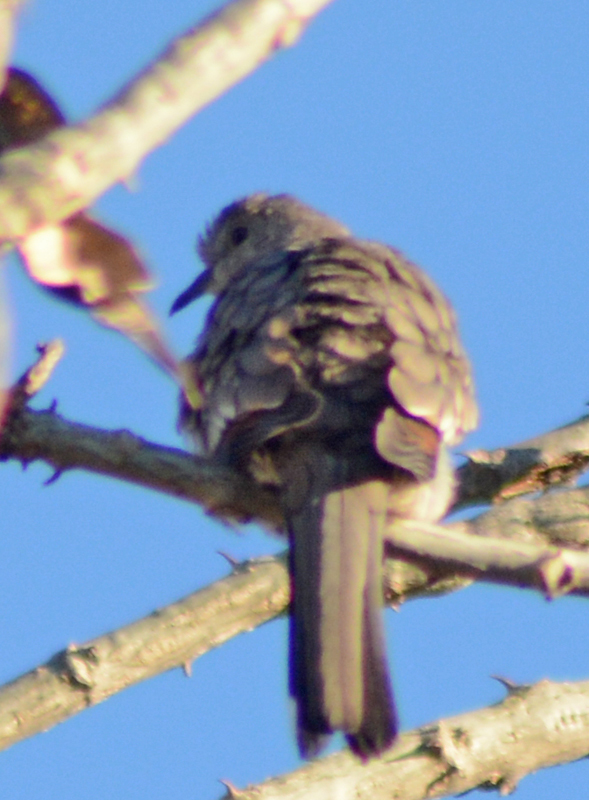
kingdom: Animalia
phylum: Chordata
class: Aves
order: Columbiformes
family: Columbidae
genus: Columbina
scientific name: Columbina inca
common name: Inca dove
